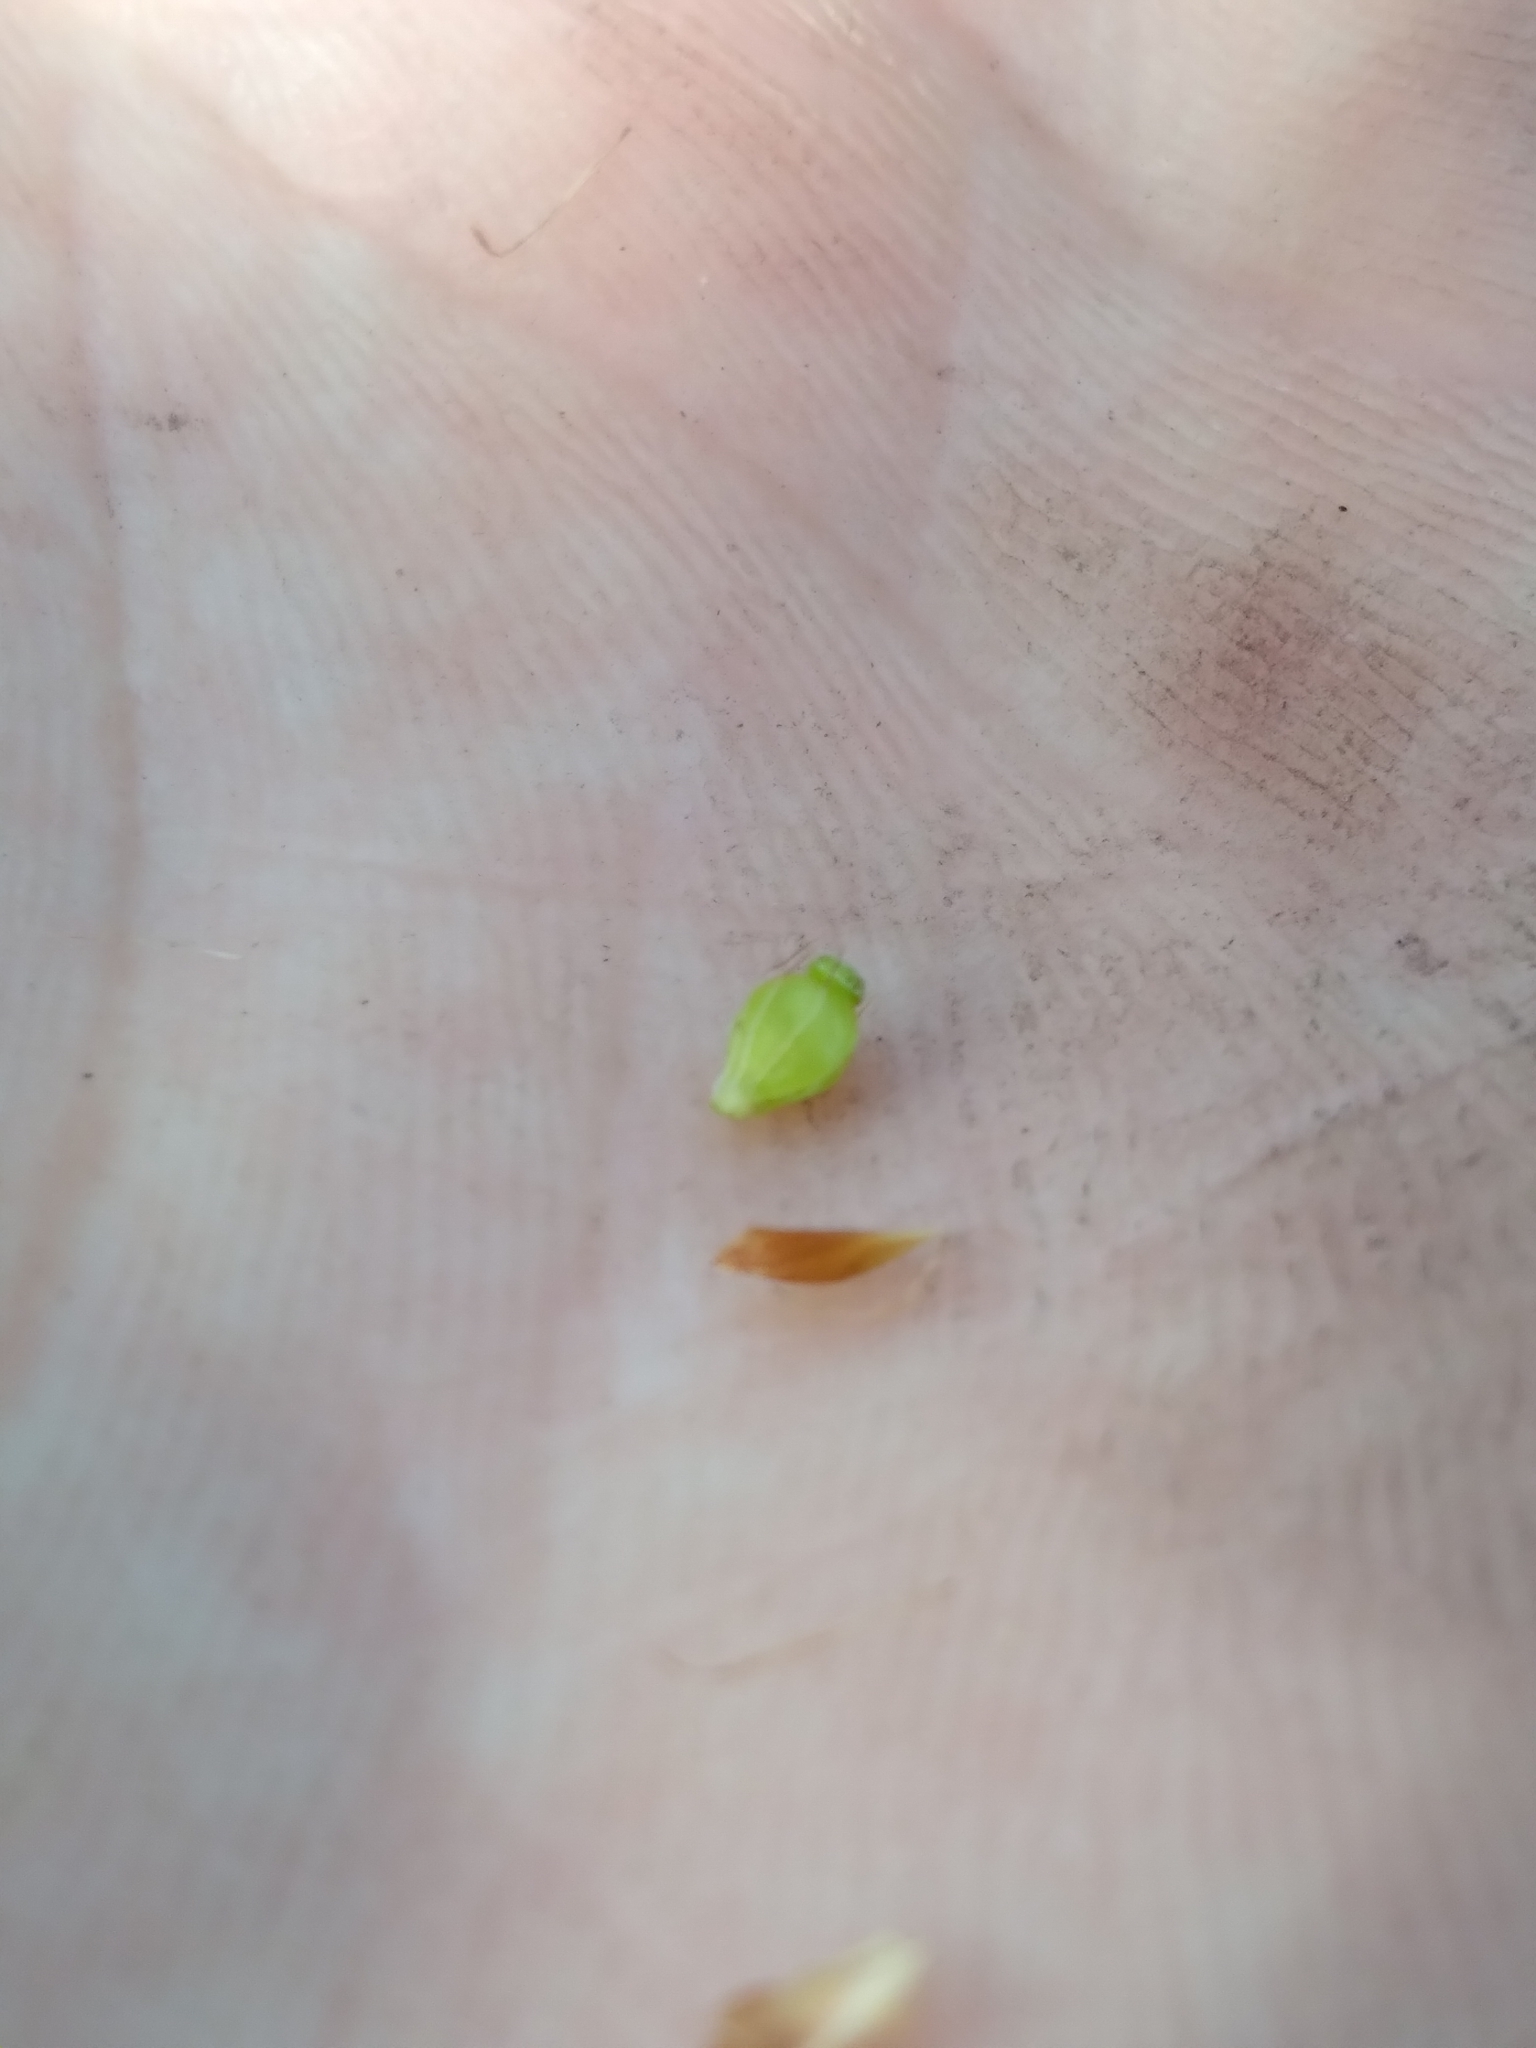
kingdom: Plantae
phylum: Tracheophyta
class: Liliopsida
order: Poales
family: Cyperaceae
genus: Rhynchospora
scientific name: Rhynchospora grayi
